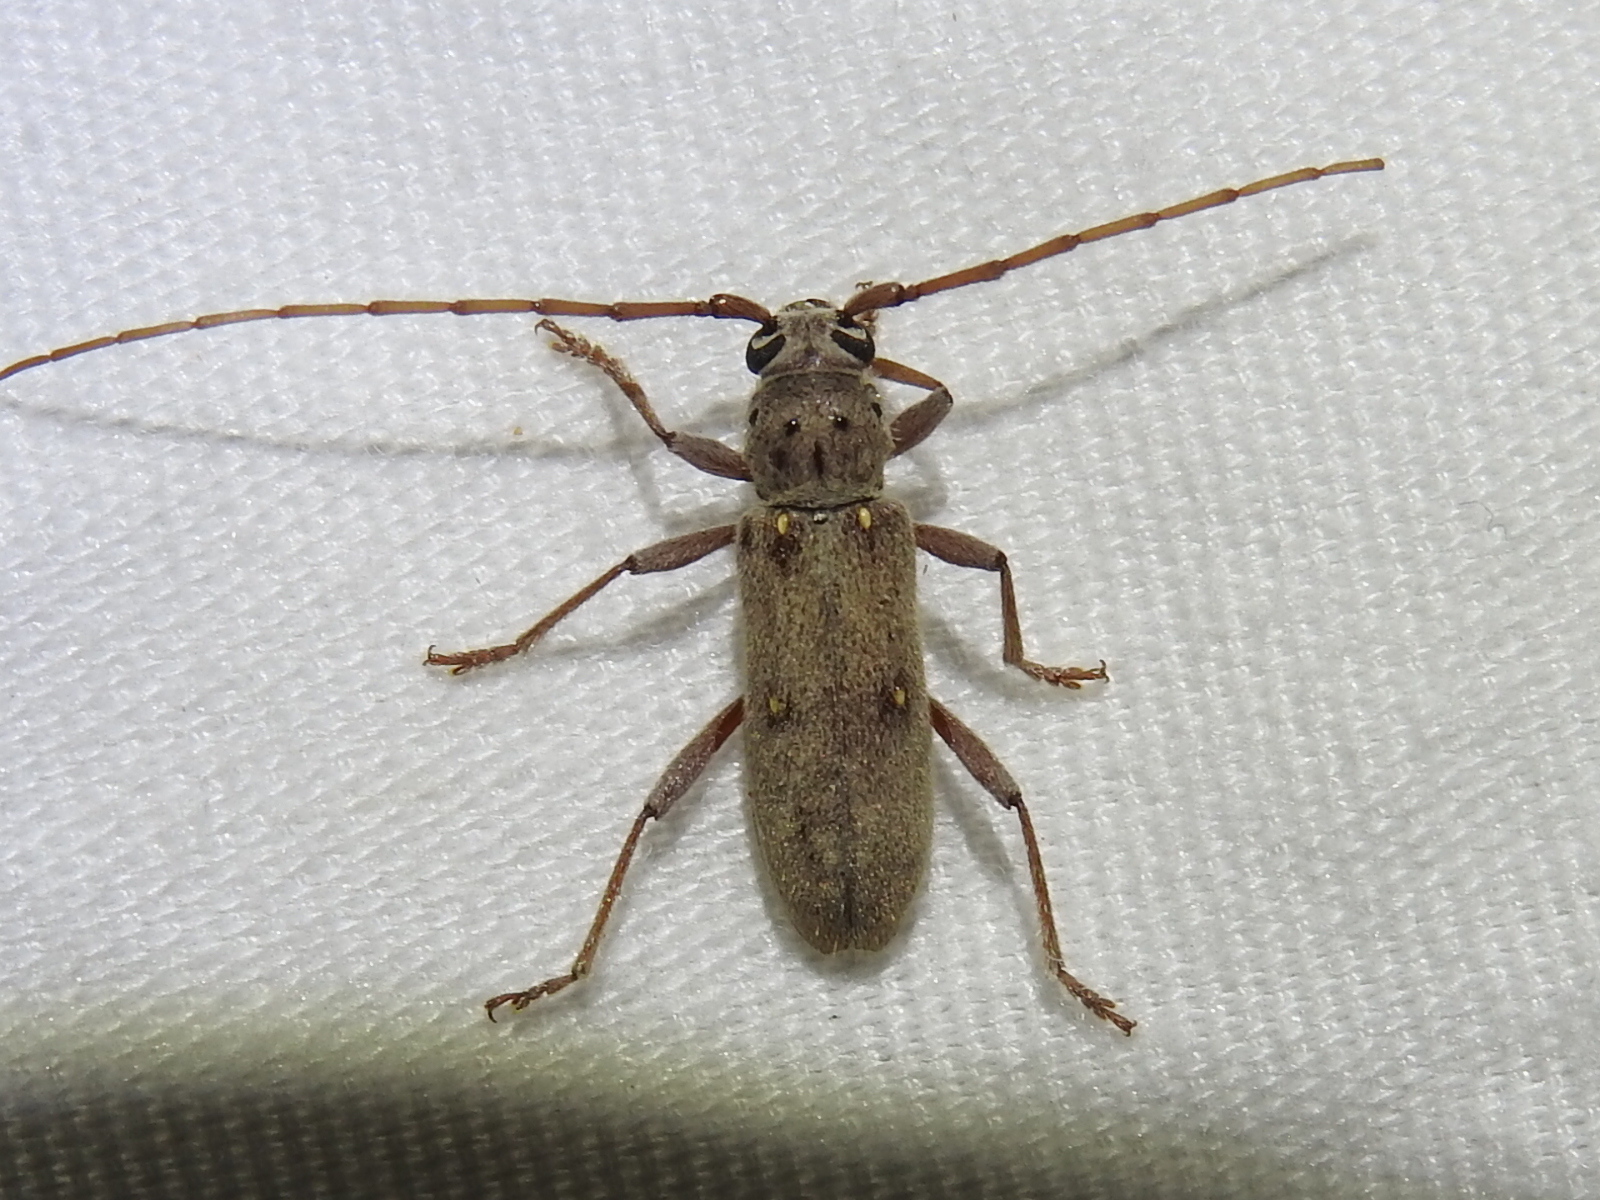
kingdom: Animalia
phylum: Arthropoda
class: Insecta
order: Coleoptera
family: Cerambycidae
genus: Eburia
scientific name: Eburia mutica
